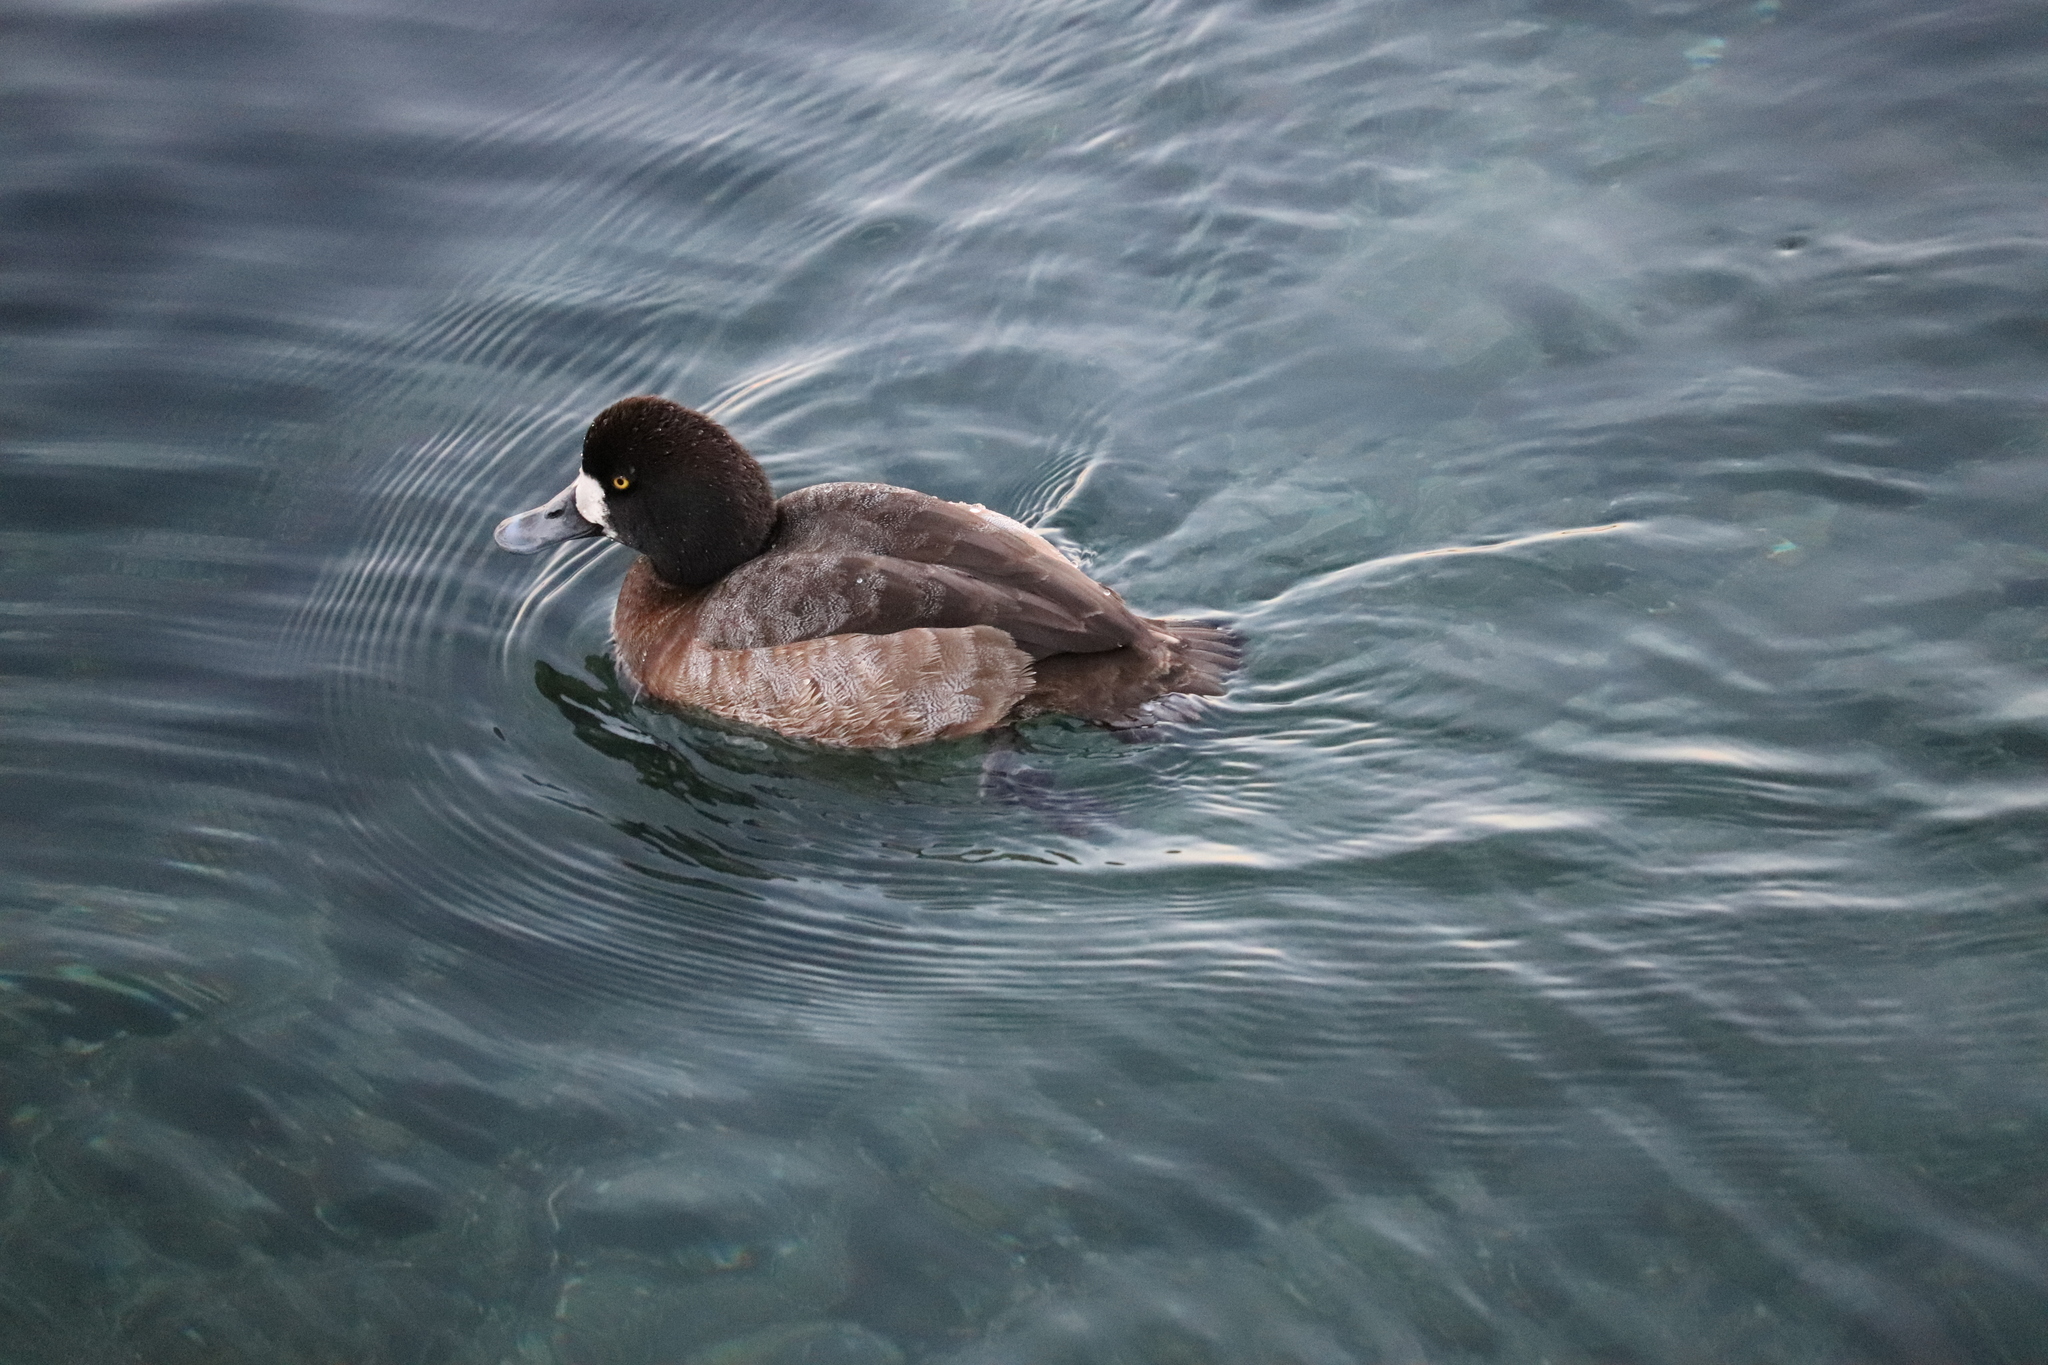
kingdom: Animalia
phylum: Chordata
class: Aves
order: Anseriformes
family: Anatidae
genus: Aythya
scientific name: Aythya marila
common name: Greater scaup
